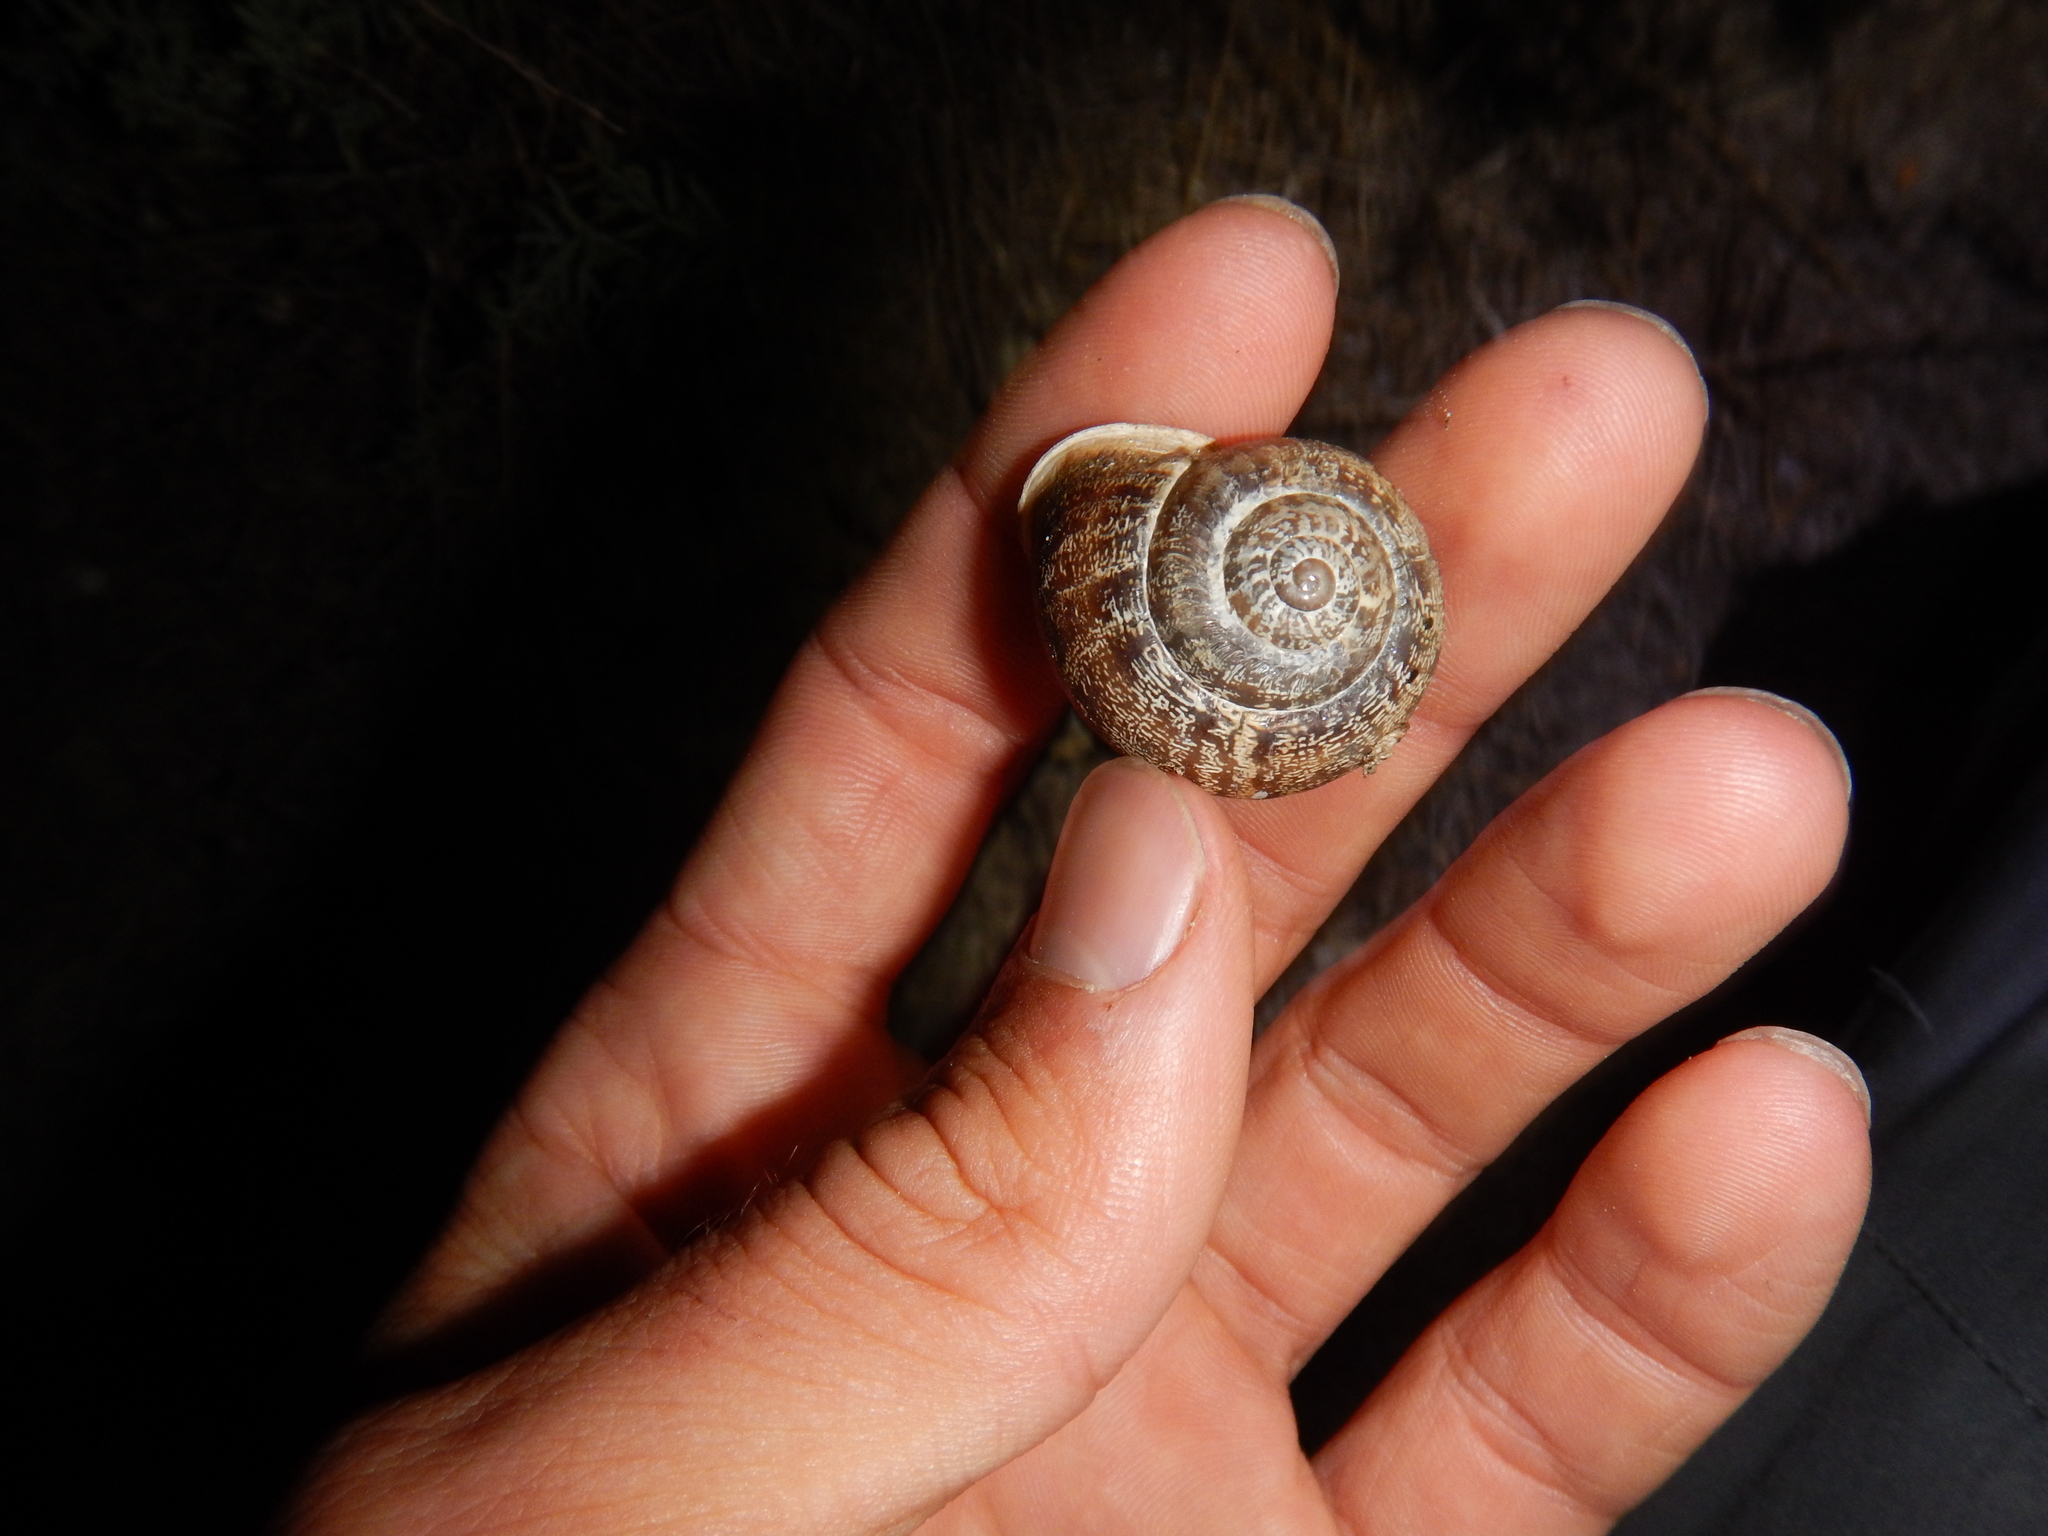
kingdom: Animalia
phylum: Mollusca
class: Gastropoda
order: Stylommatophora
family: Helicidae
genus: Eobania
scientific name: Eobania vermiculata
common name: Chocolateband snail
